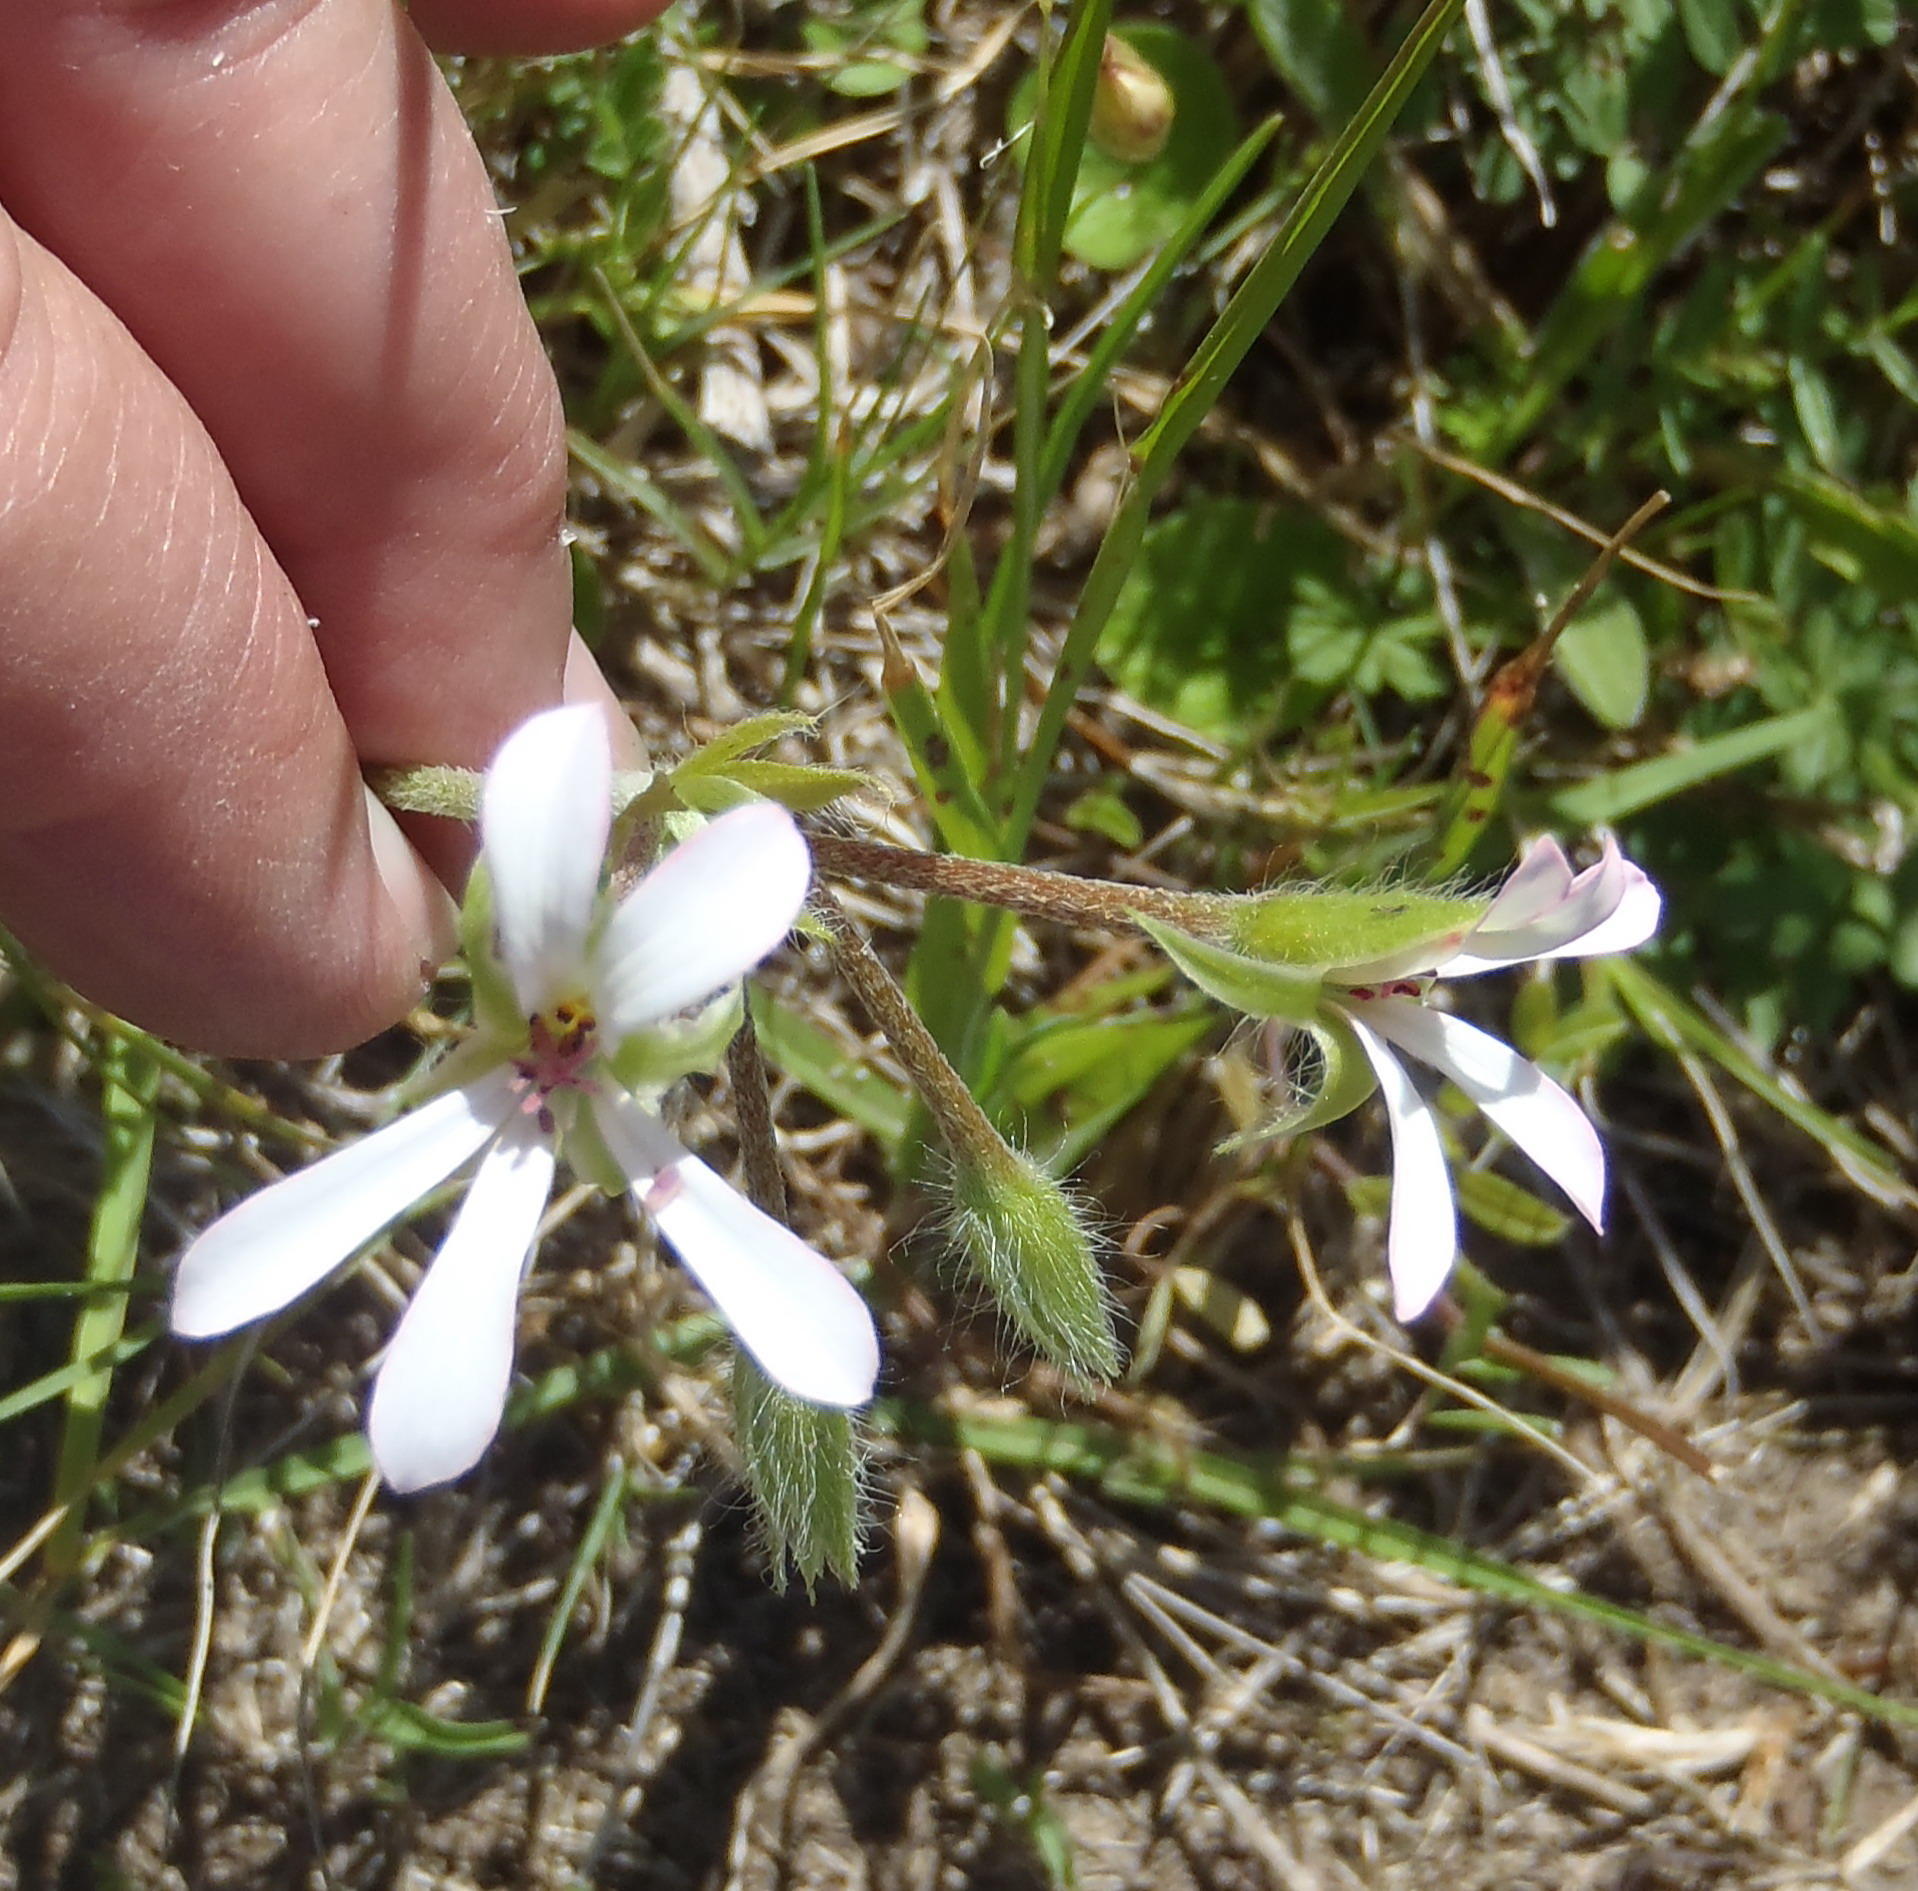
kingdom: Plantae
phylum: Tracheophyta
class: Magnoliopsida
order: Geraniales
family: Geraniaceae
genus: Pelargonium
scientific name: Pelargonium alchemilloides
